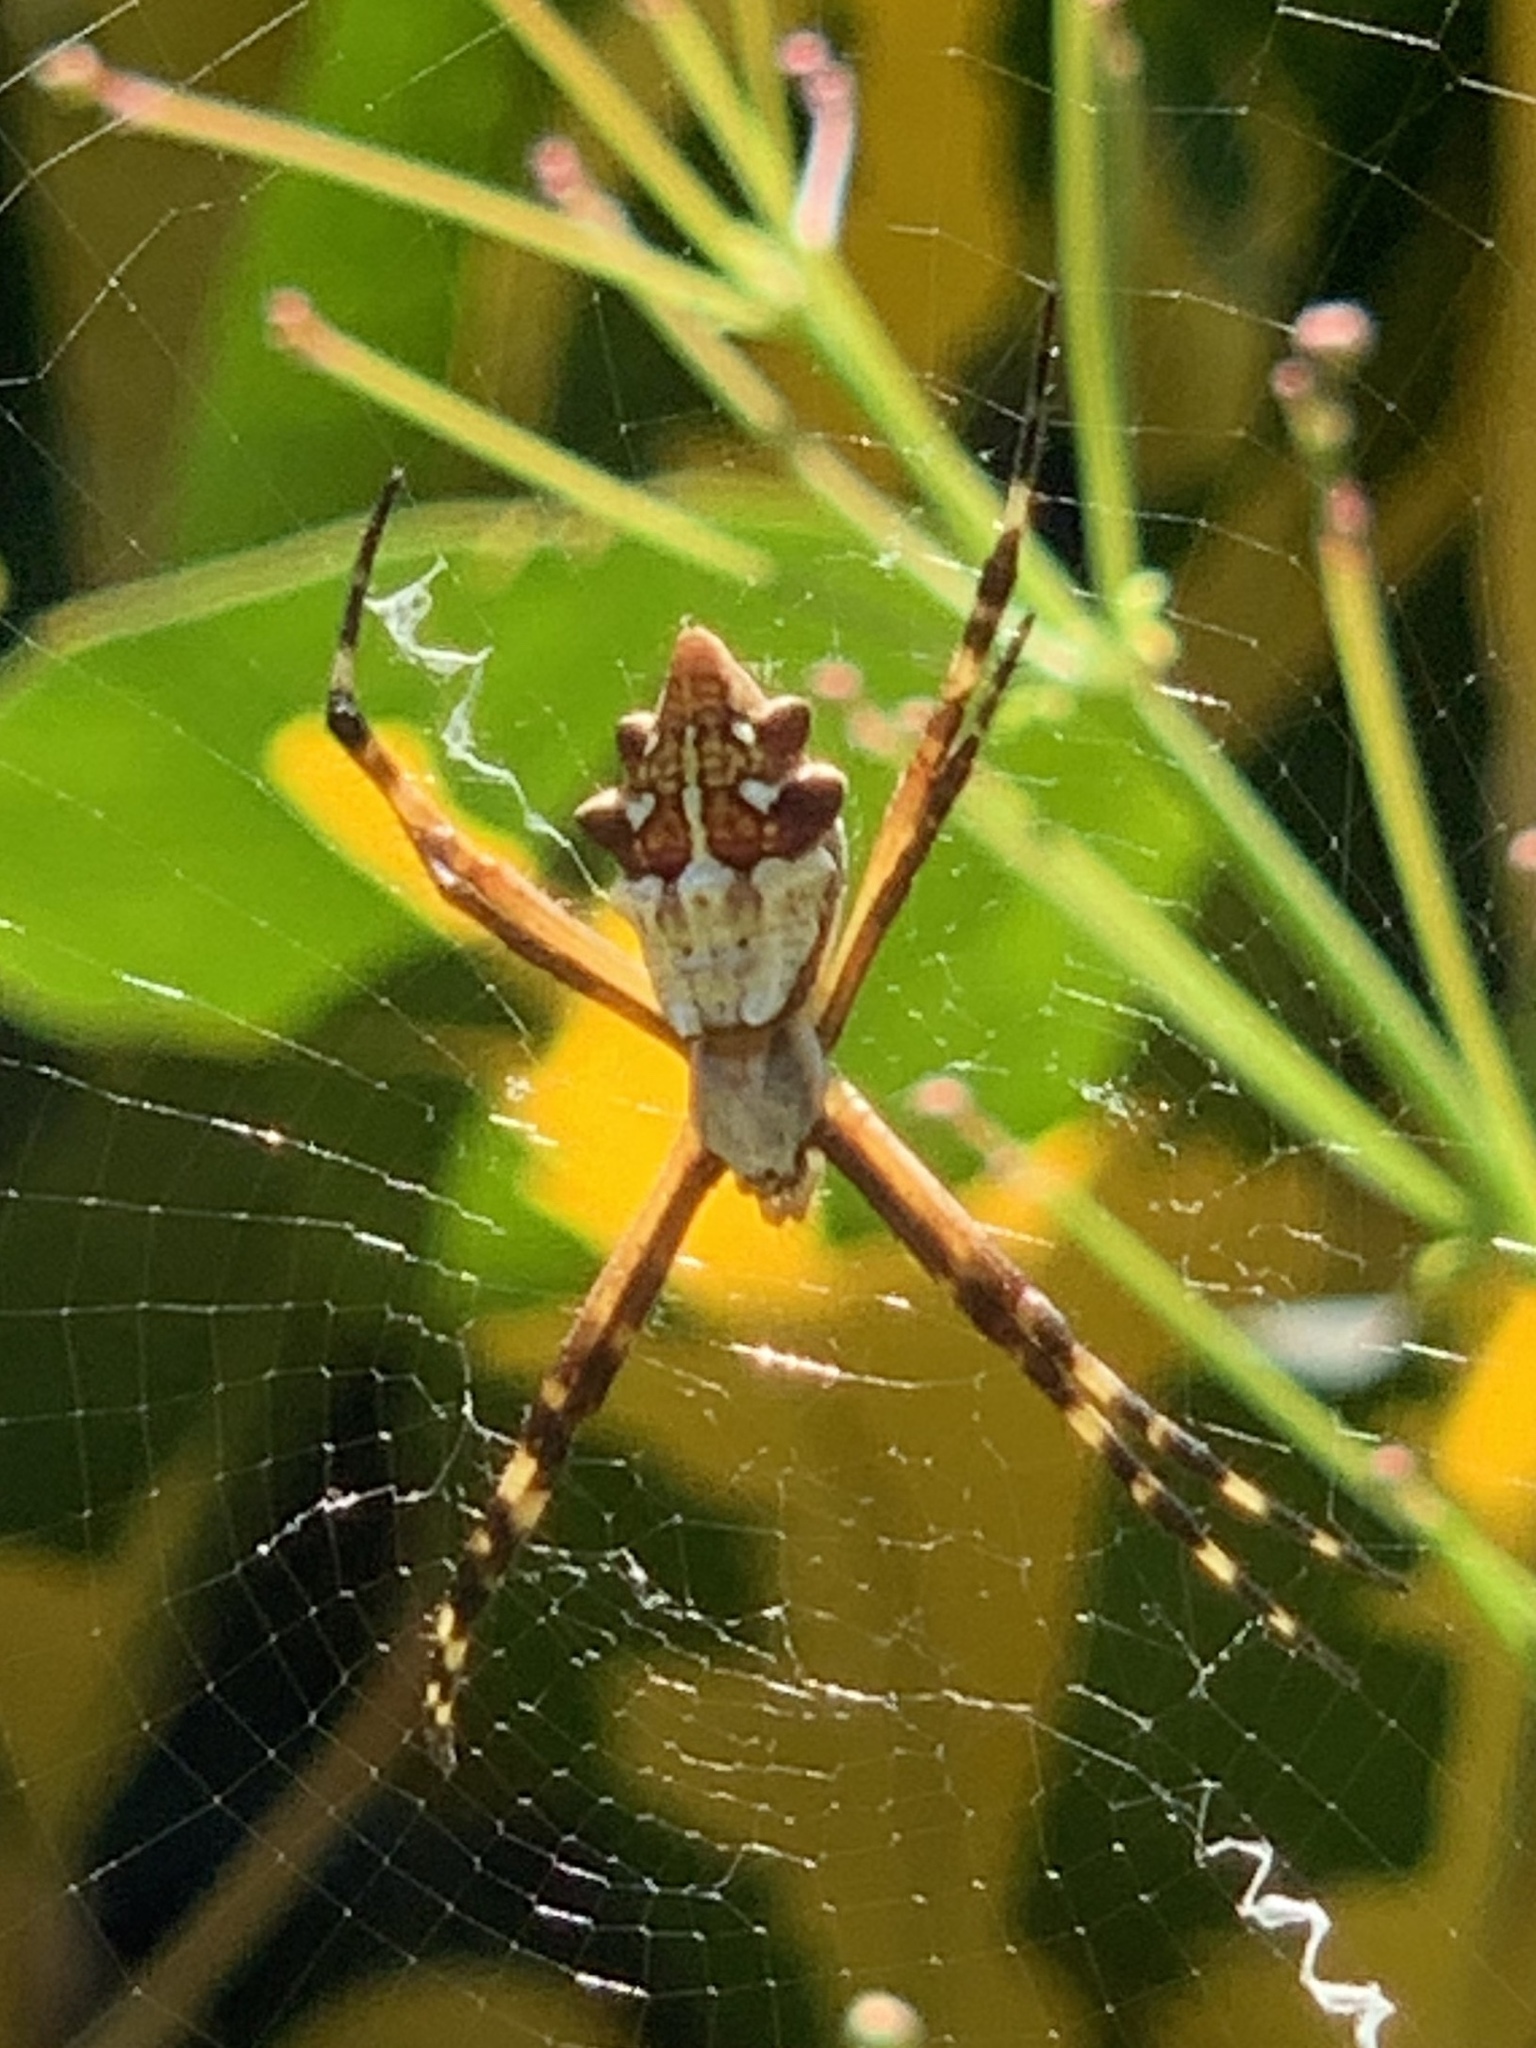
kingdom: Animalia
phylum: Arthropoda
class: Arachnida
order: Araneae
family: Araneidae
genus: Argiope
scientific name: Argiope argentata
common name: Orb weavers
